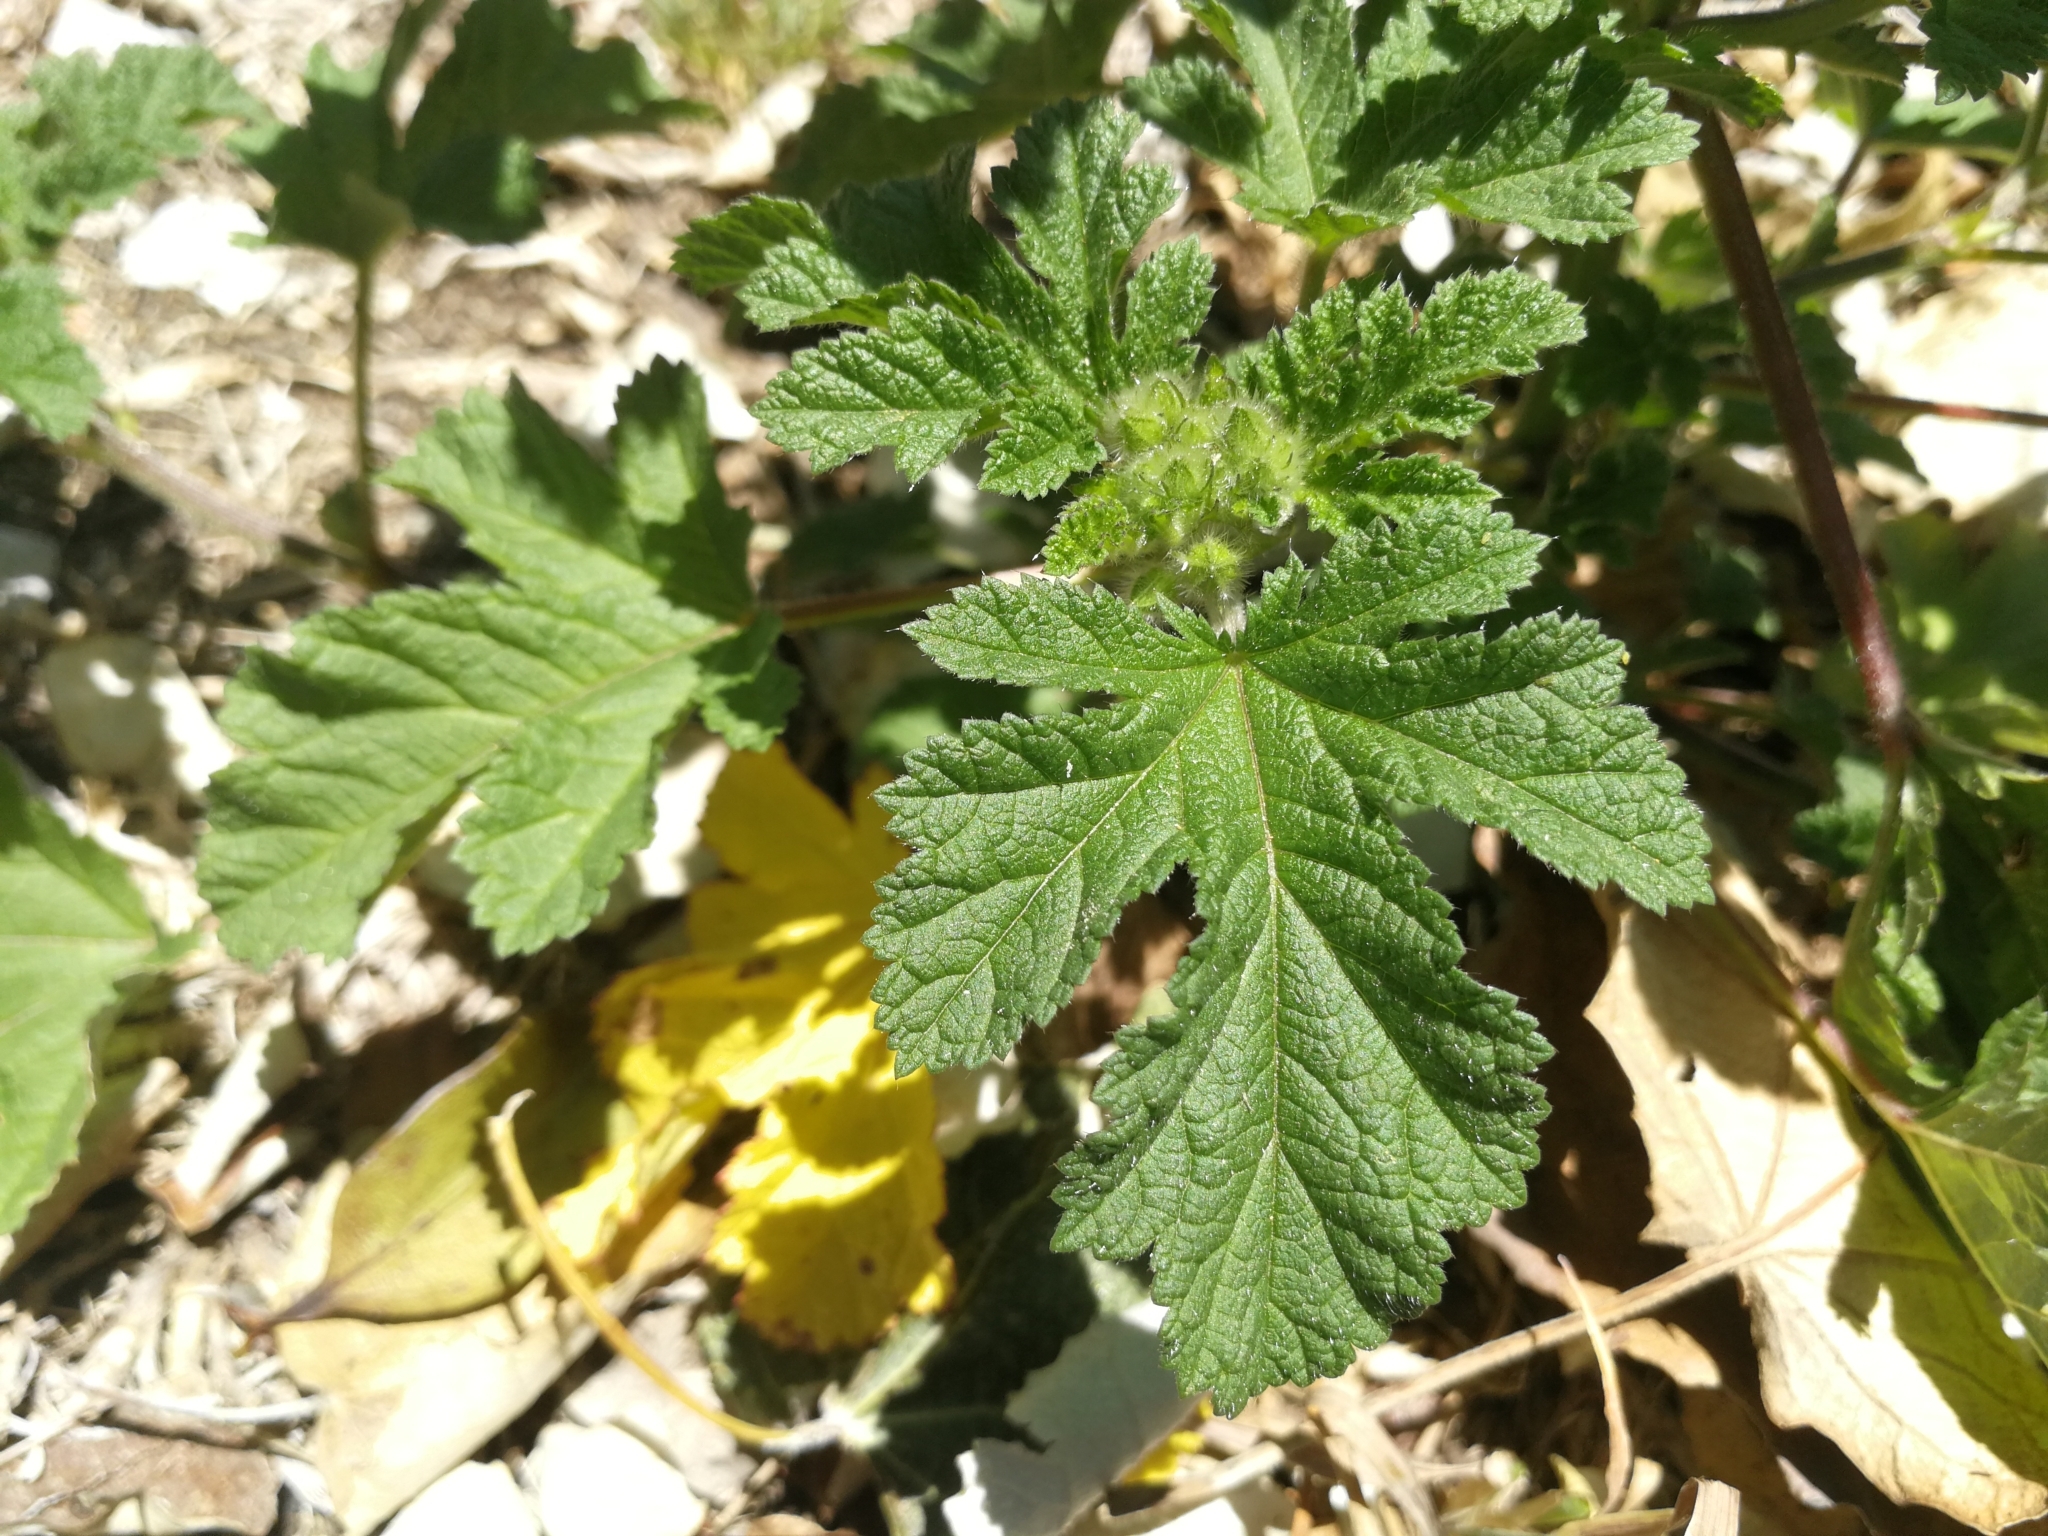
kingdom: Plantae
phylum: Tracheophyta
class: Magnoliopsida
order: Malvales
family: Malvaceae
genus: Fuertesimalva
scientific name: Fuertesimalva limensis
